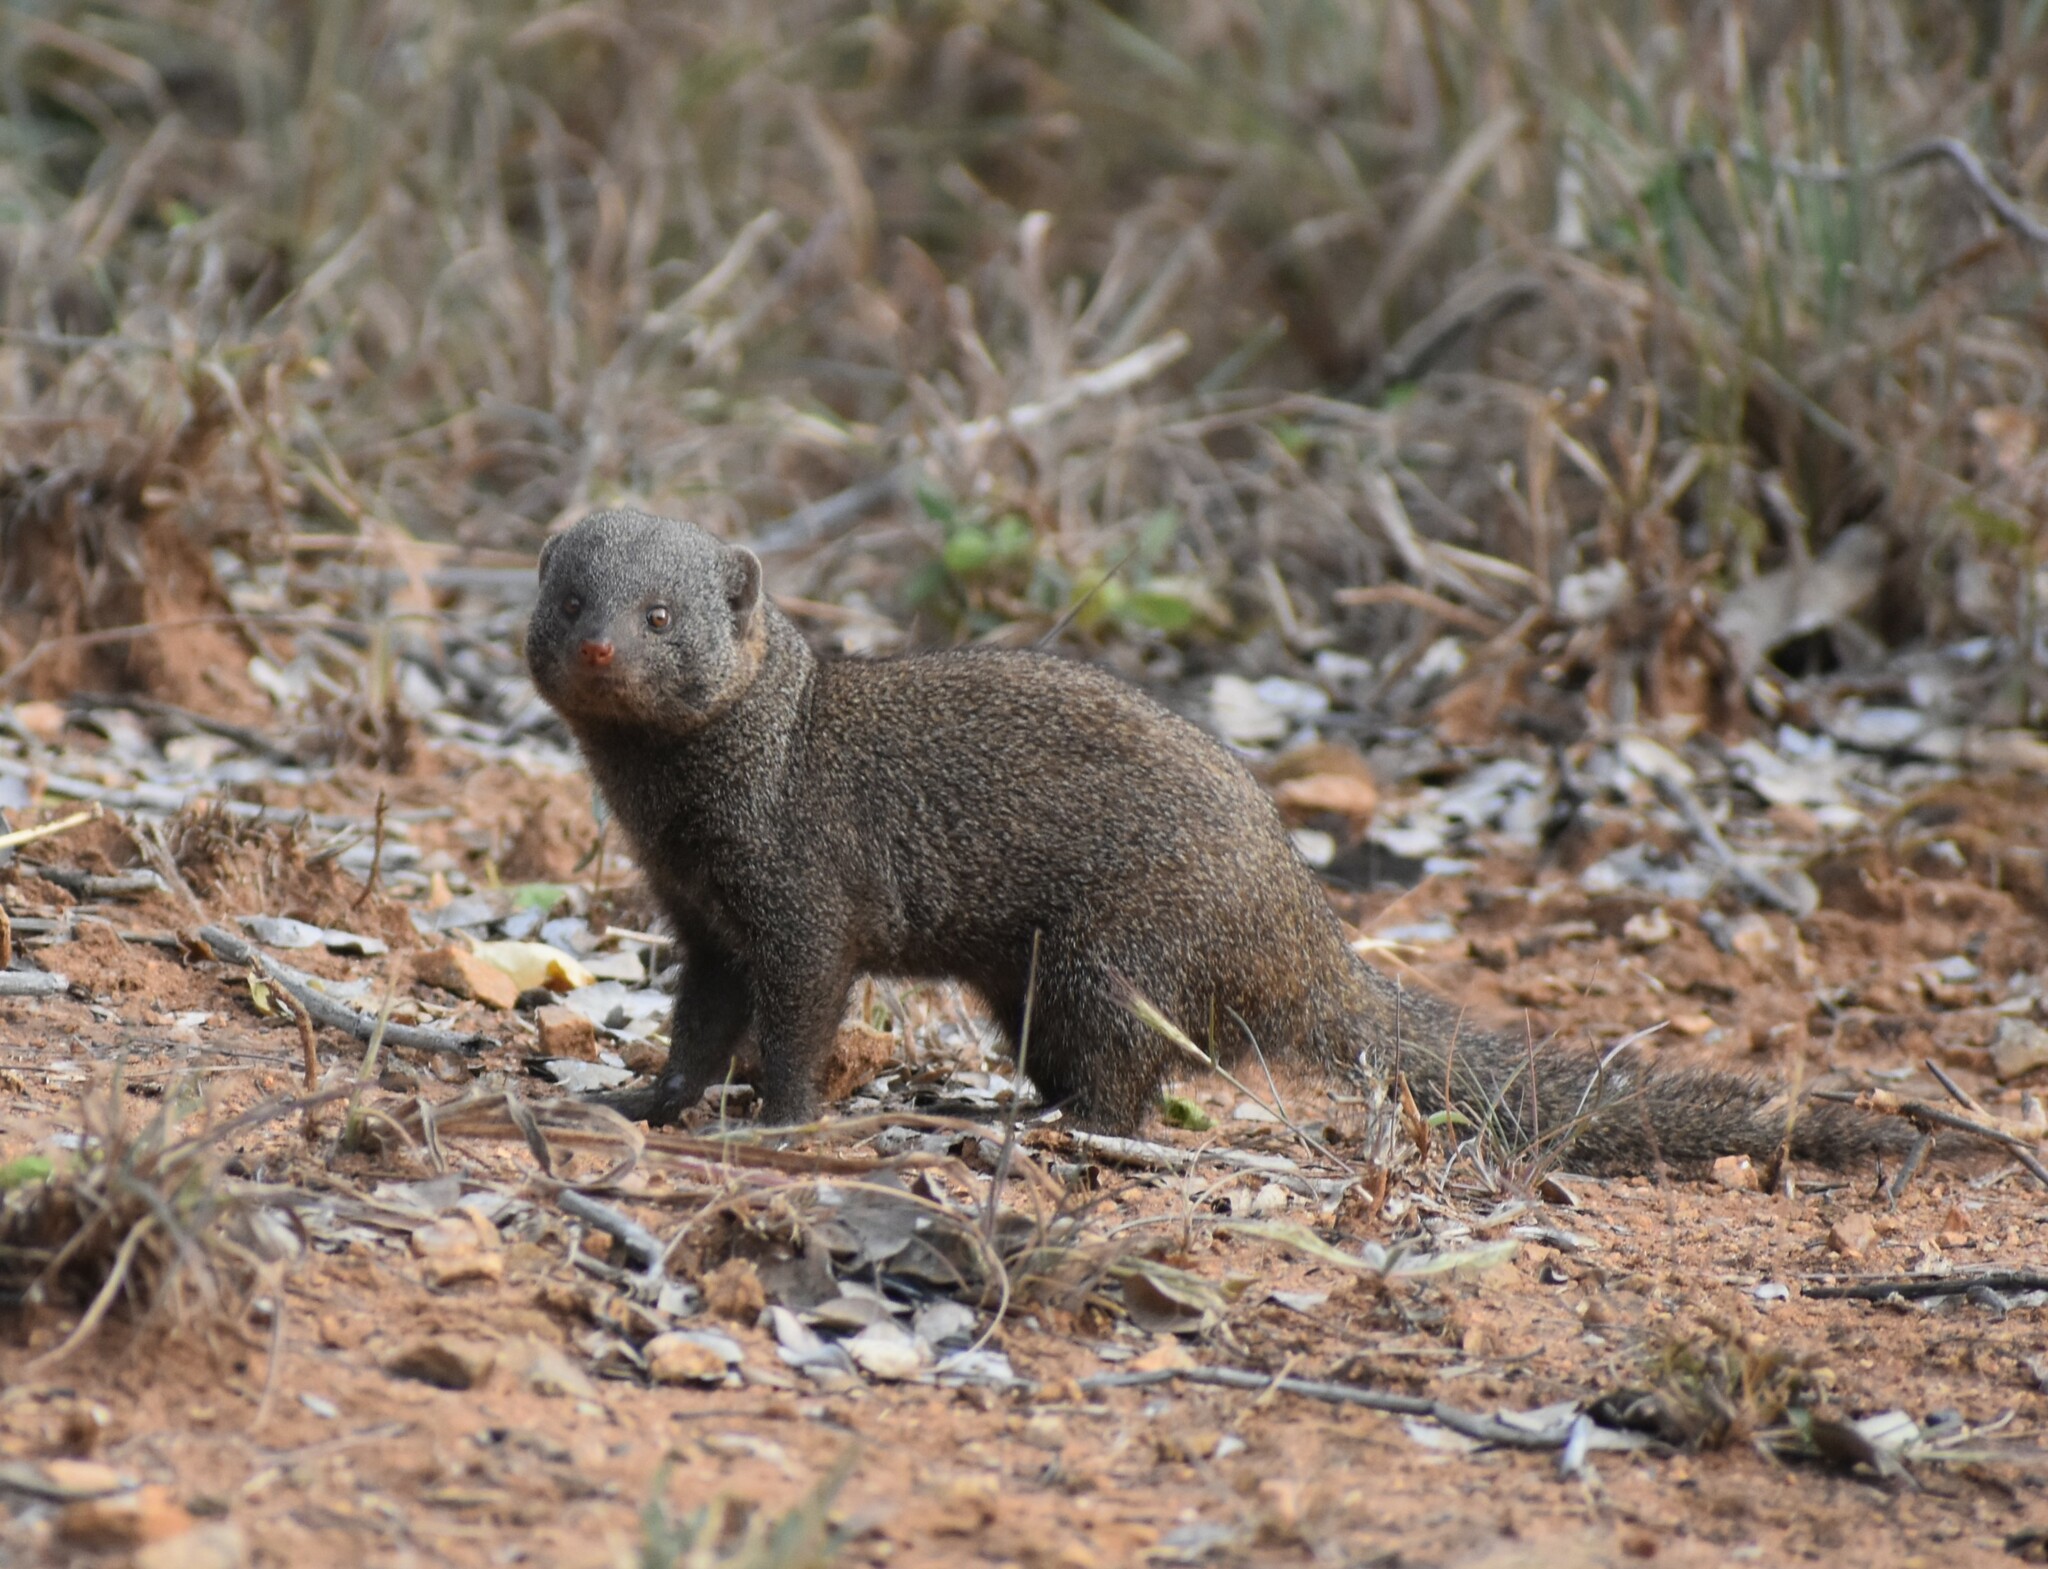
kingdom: Animalia
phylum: Chordata
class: Mammalia
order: Carnivora
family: Herpestidae
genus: Helogale
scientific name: Helogale parvula
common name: Common dwarf mongoose
